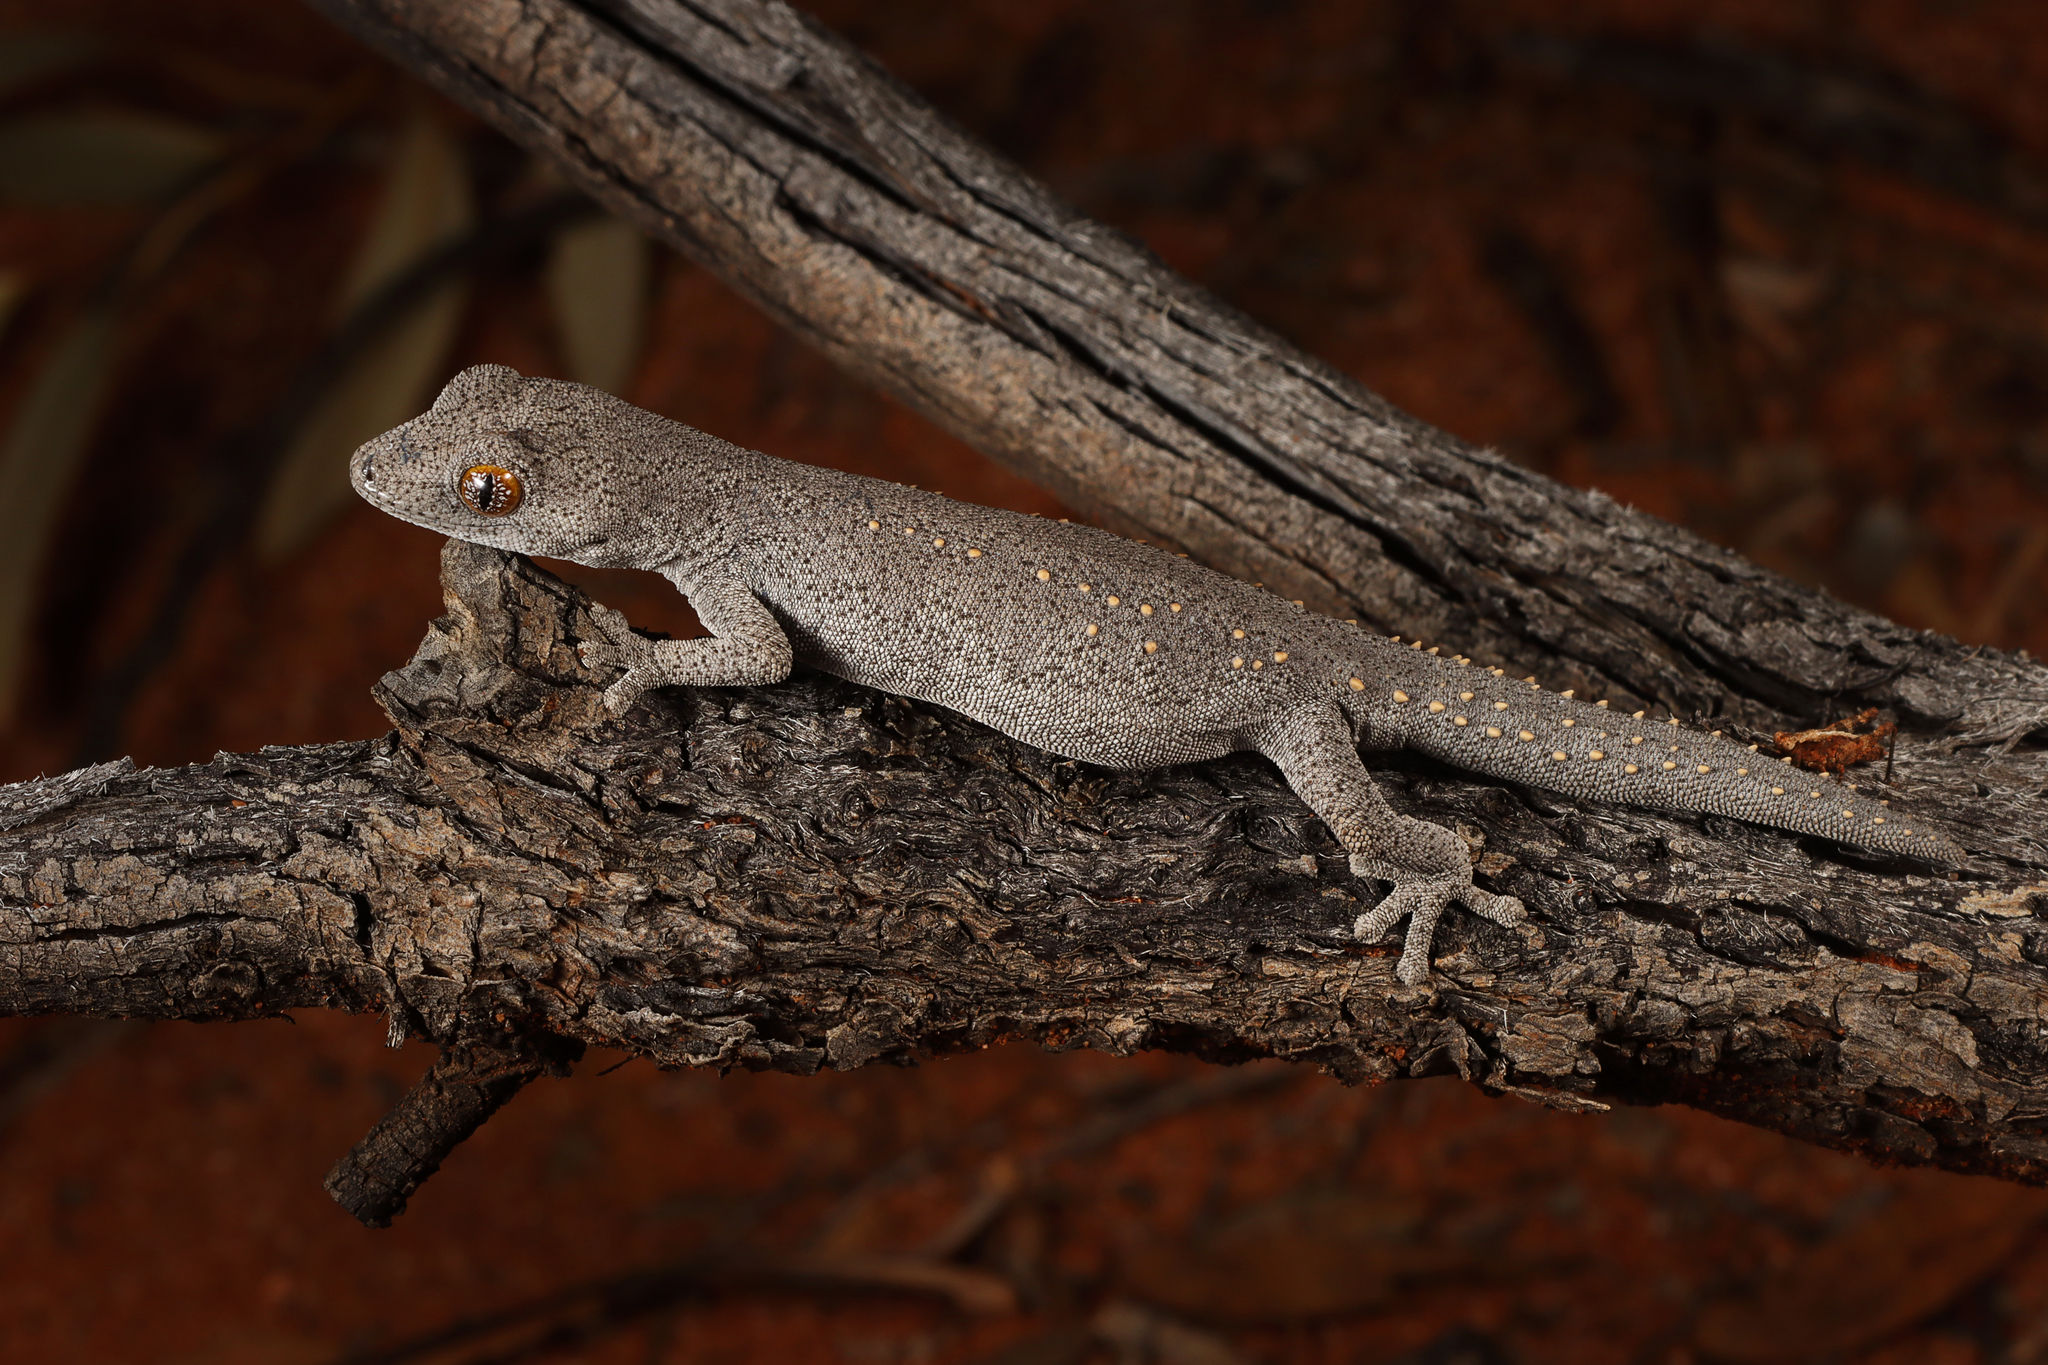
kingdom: Animalia
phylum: Chordata
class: Squamata
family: Diplodactylidae
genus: Strophurus
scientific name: Strophurus williamsi
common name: Eastern spiny-tailed gecko
